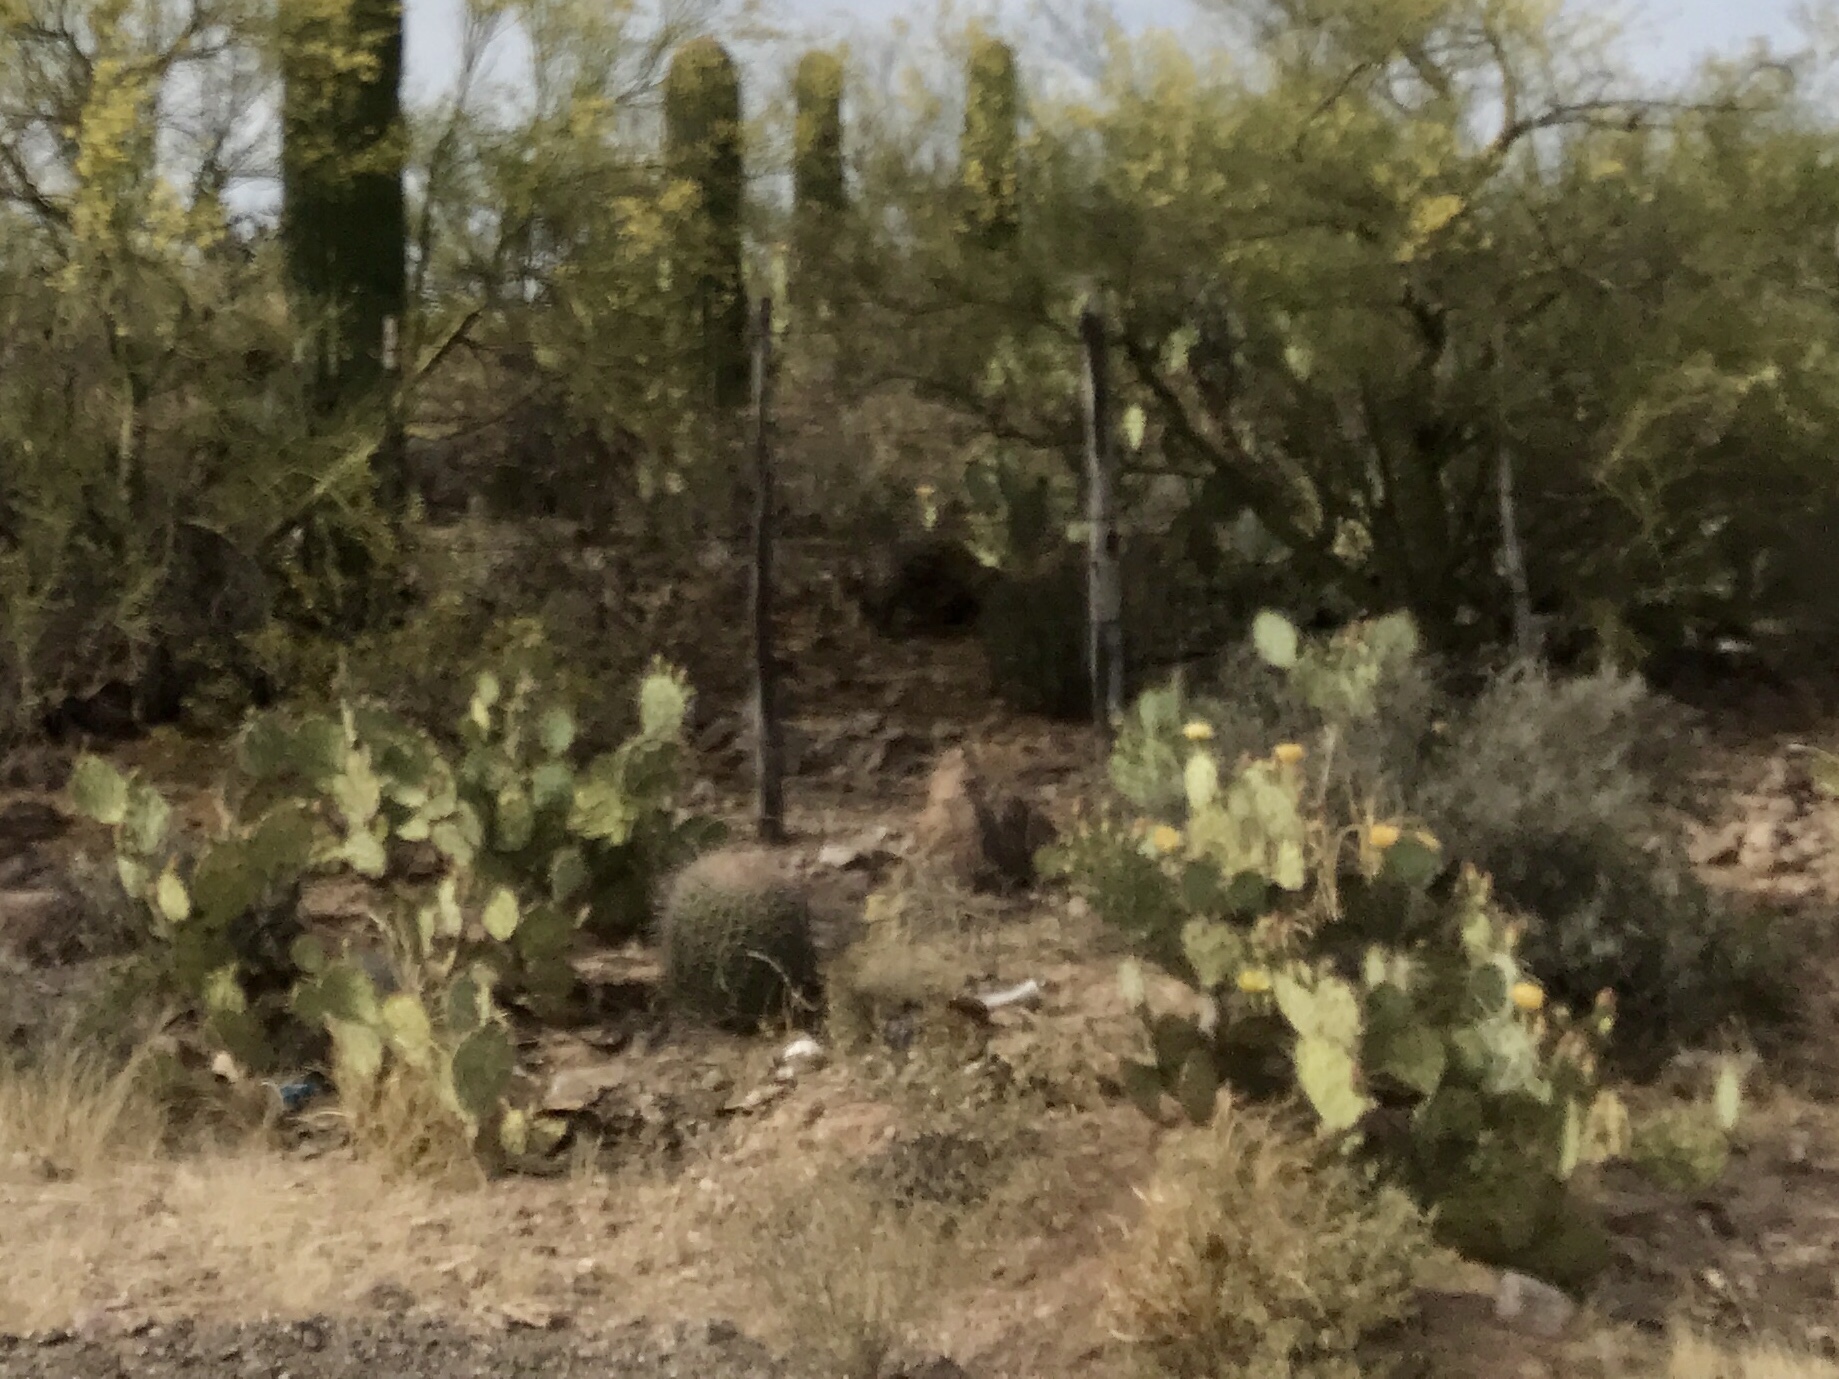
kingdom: Plantae
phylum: Tracheophyta
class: Magnoliopsida
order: Caryophyllales
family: Cactaceae
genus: Opuntia
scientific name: Opuntia engelmannii
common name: Cactus-apple
